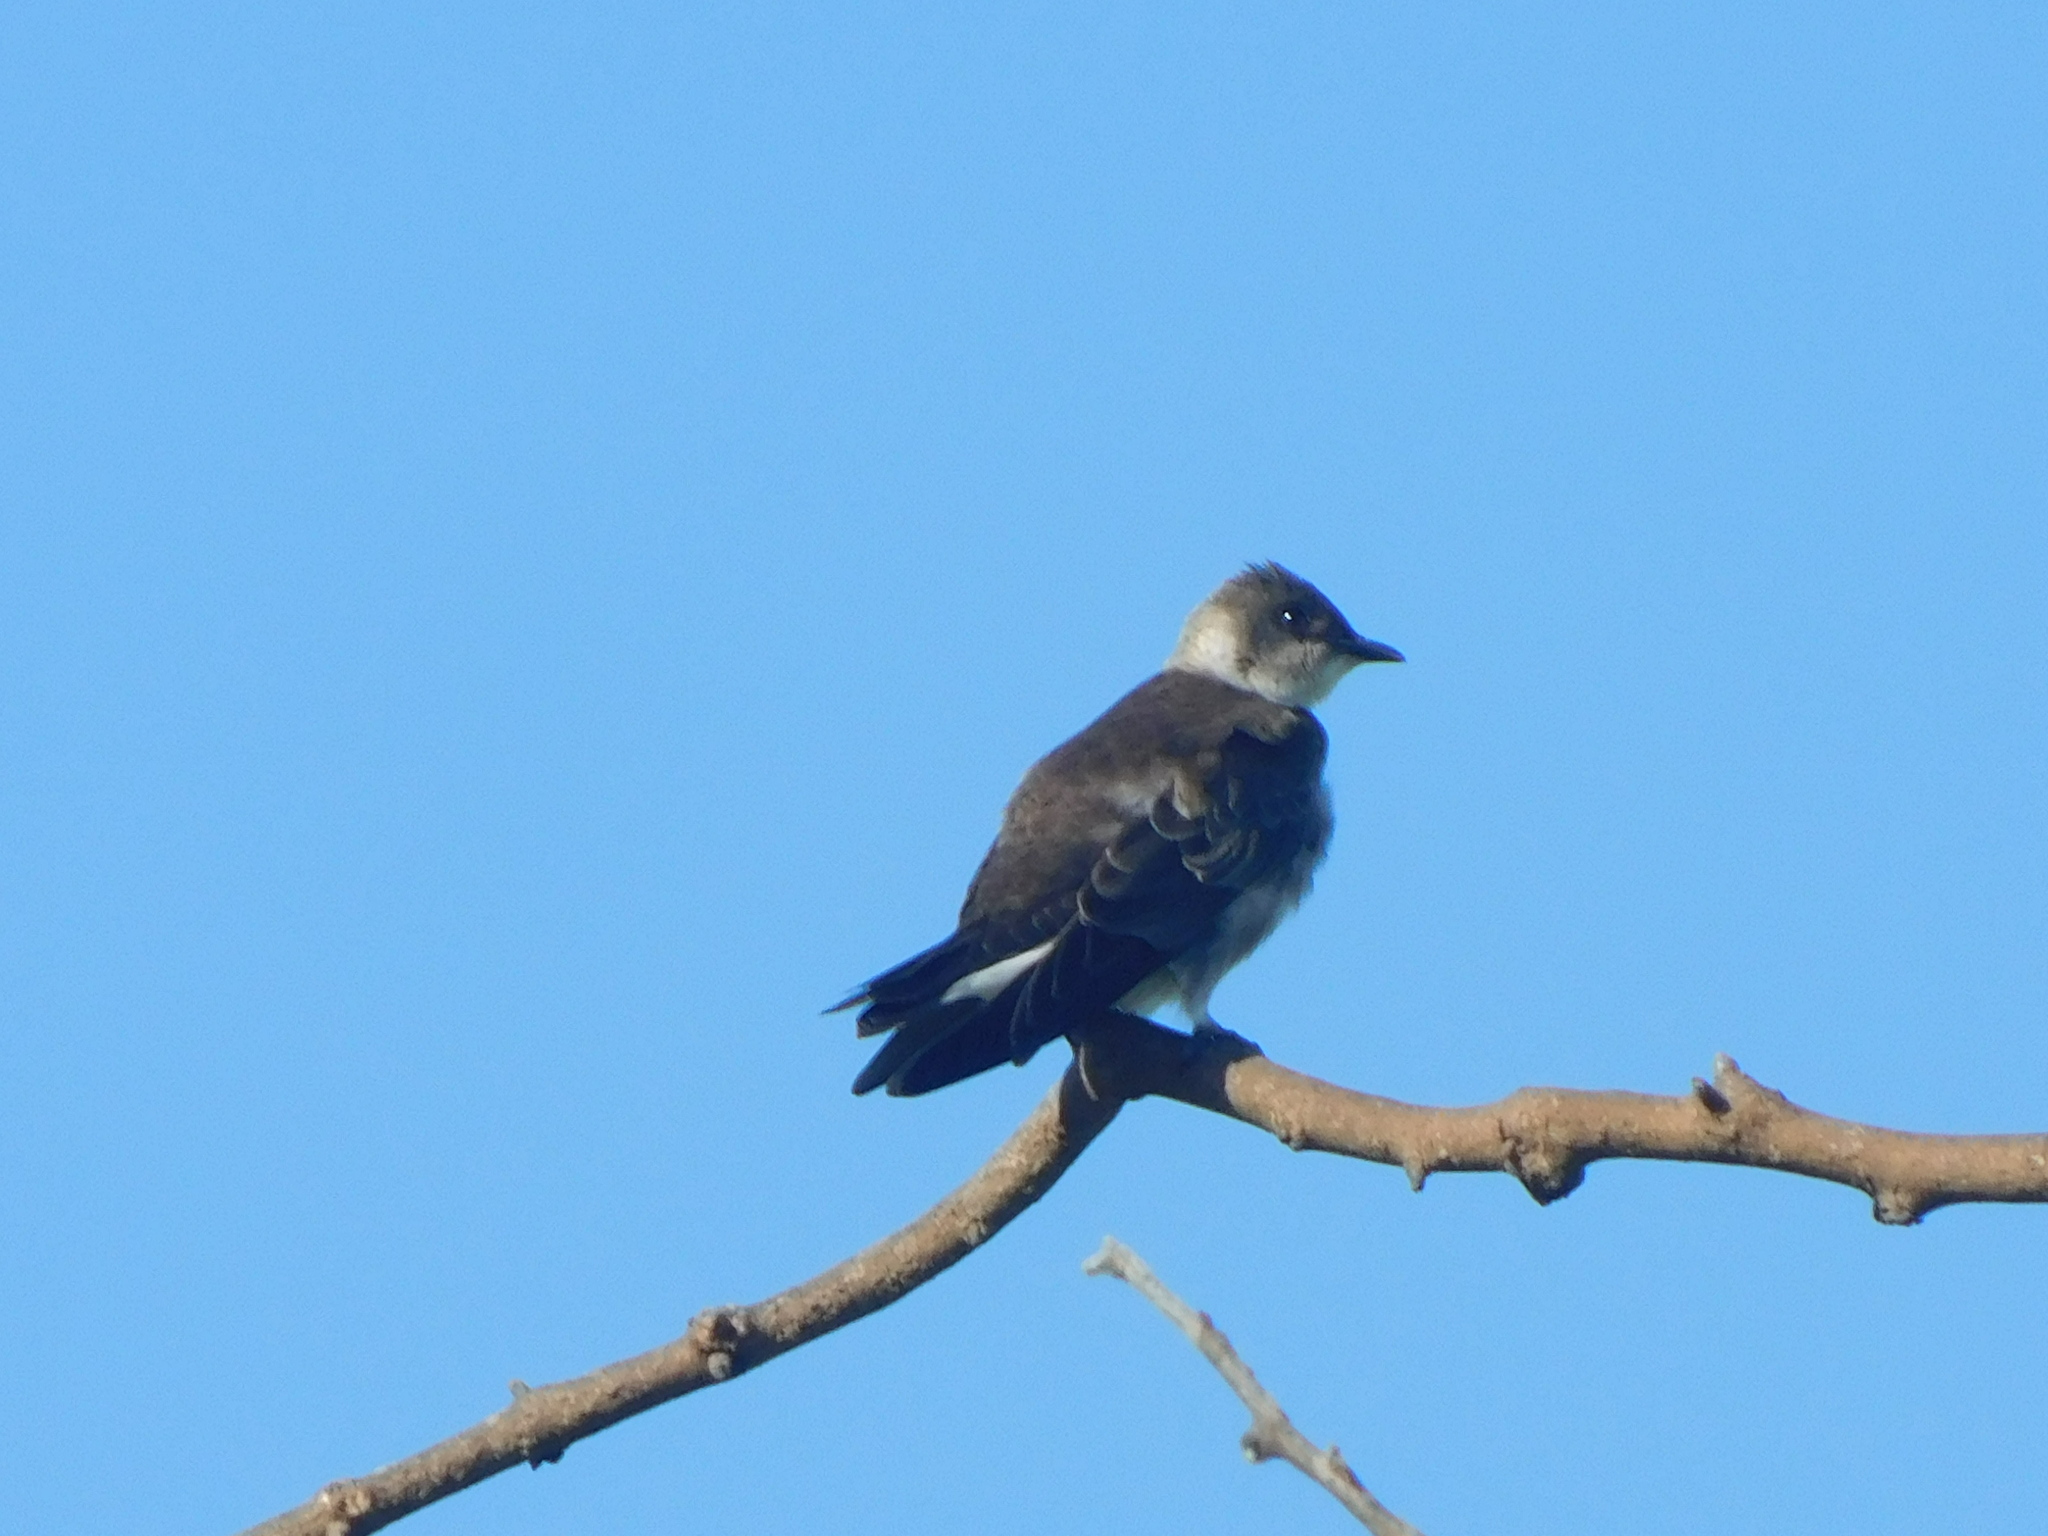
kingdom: Animalia
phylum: Chordata
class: Aves
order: Passeriformes
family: Hirundinidae
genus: Progne
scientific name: Progne tapera
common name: Brown-chested martin
